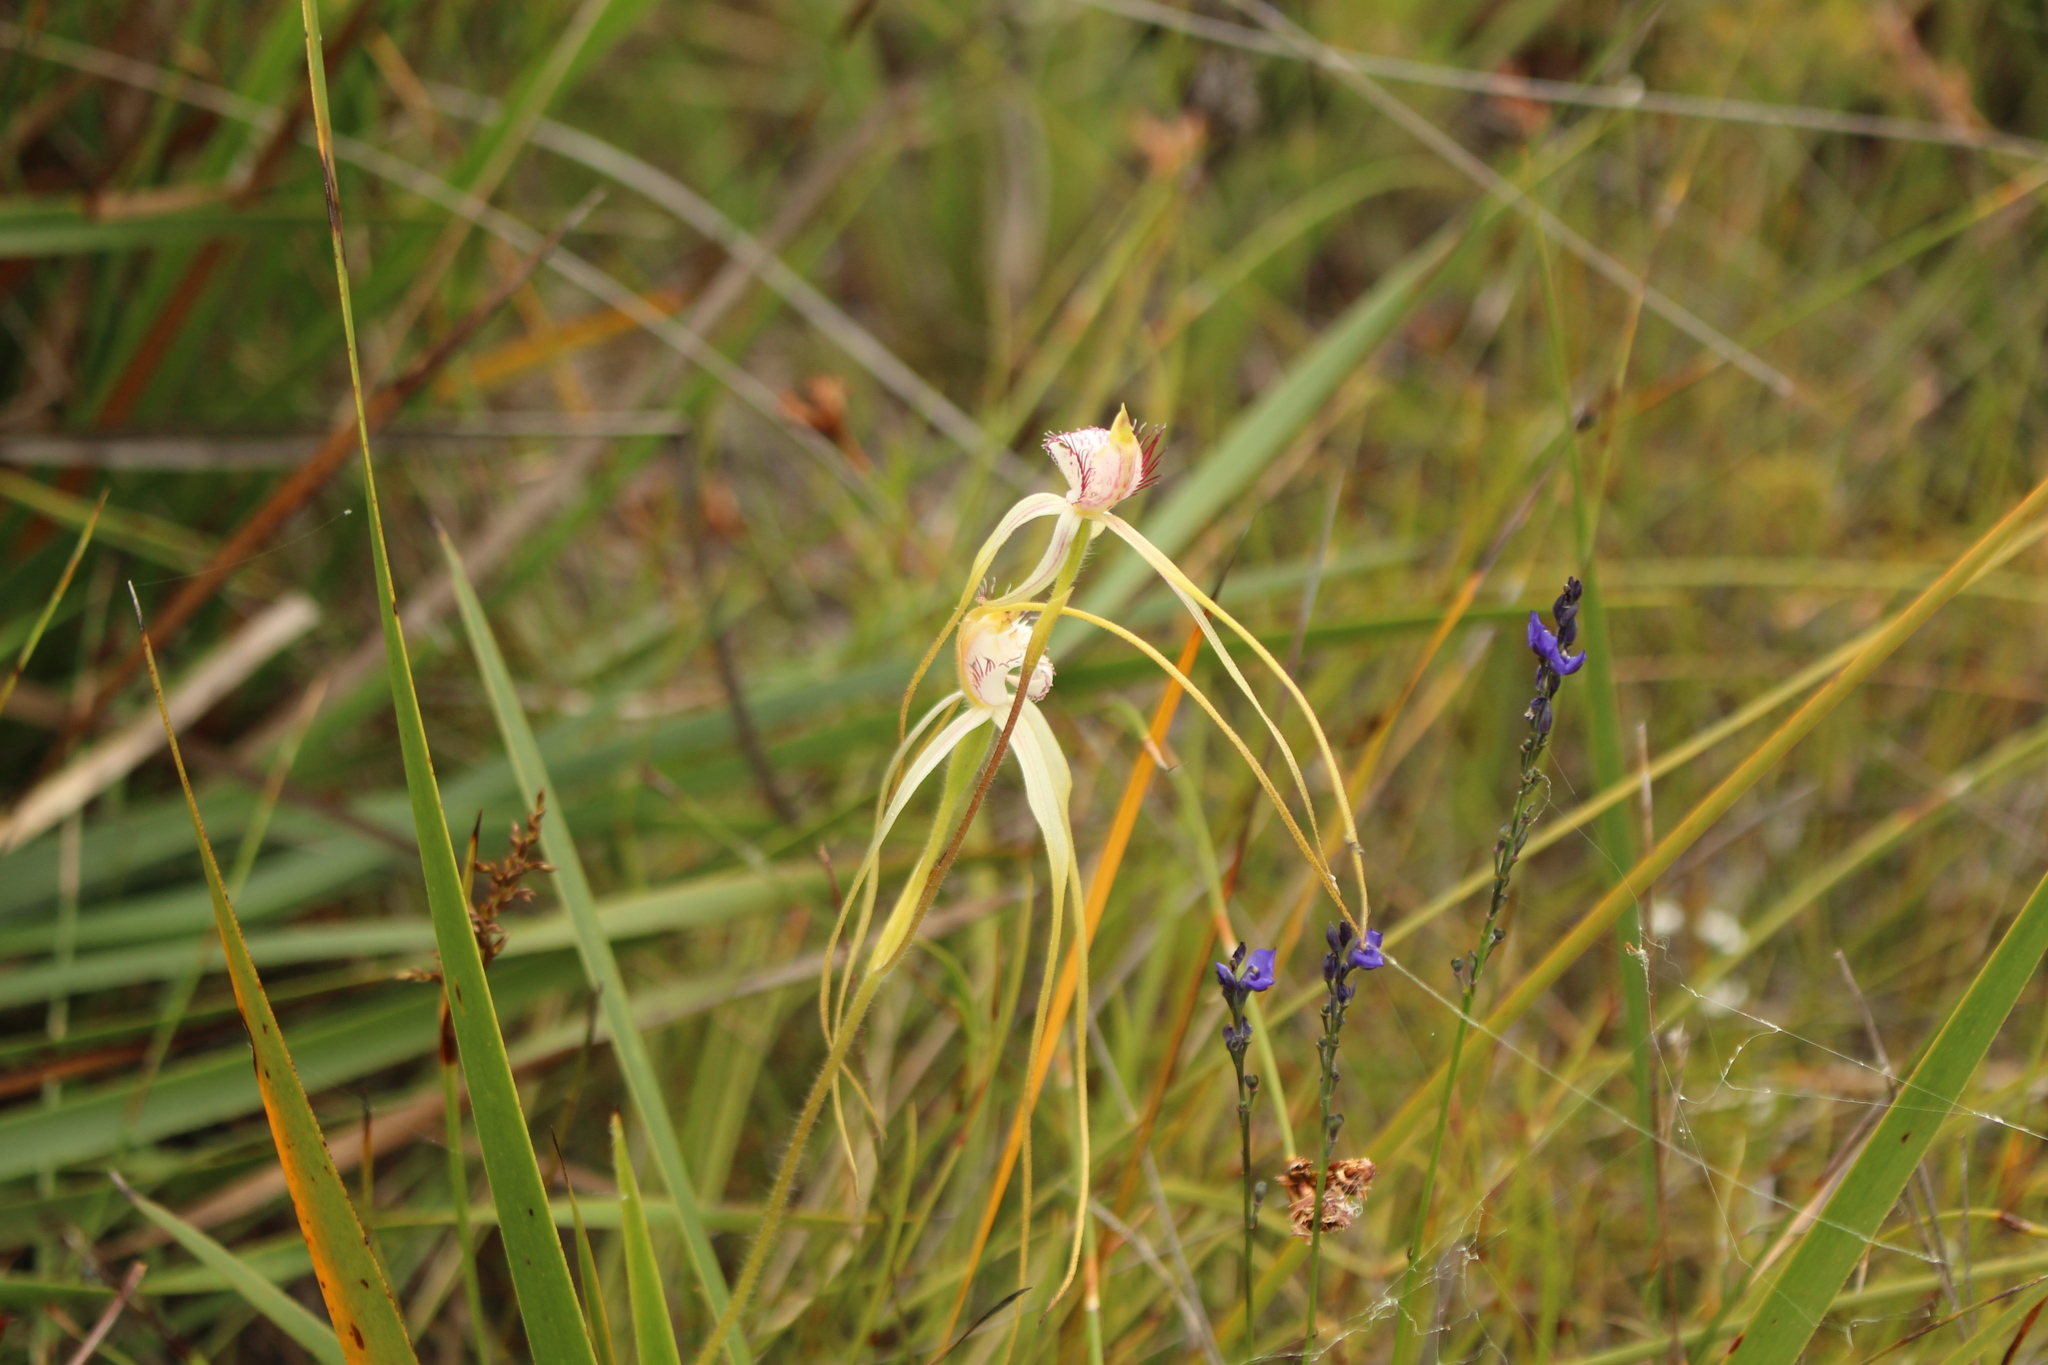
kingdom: Plantae
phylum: Tracheophyta
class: Liliopsida
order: Asparagales
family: Orchidaceae
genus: Caladenia
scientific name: Caladenia pholcoidea
